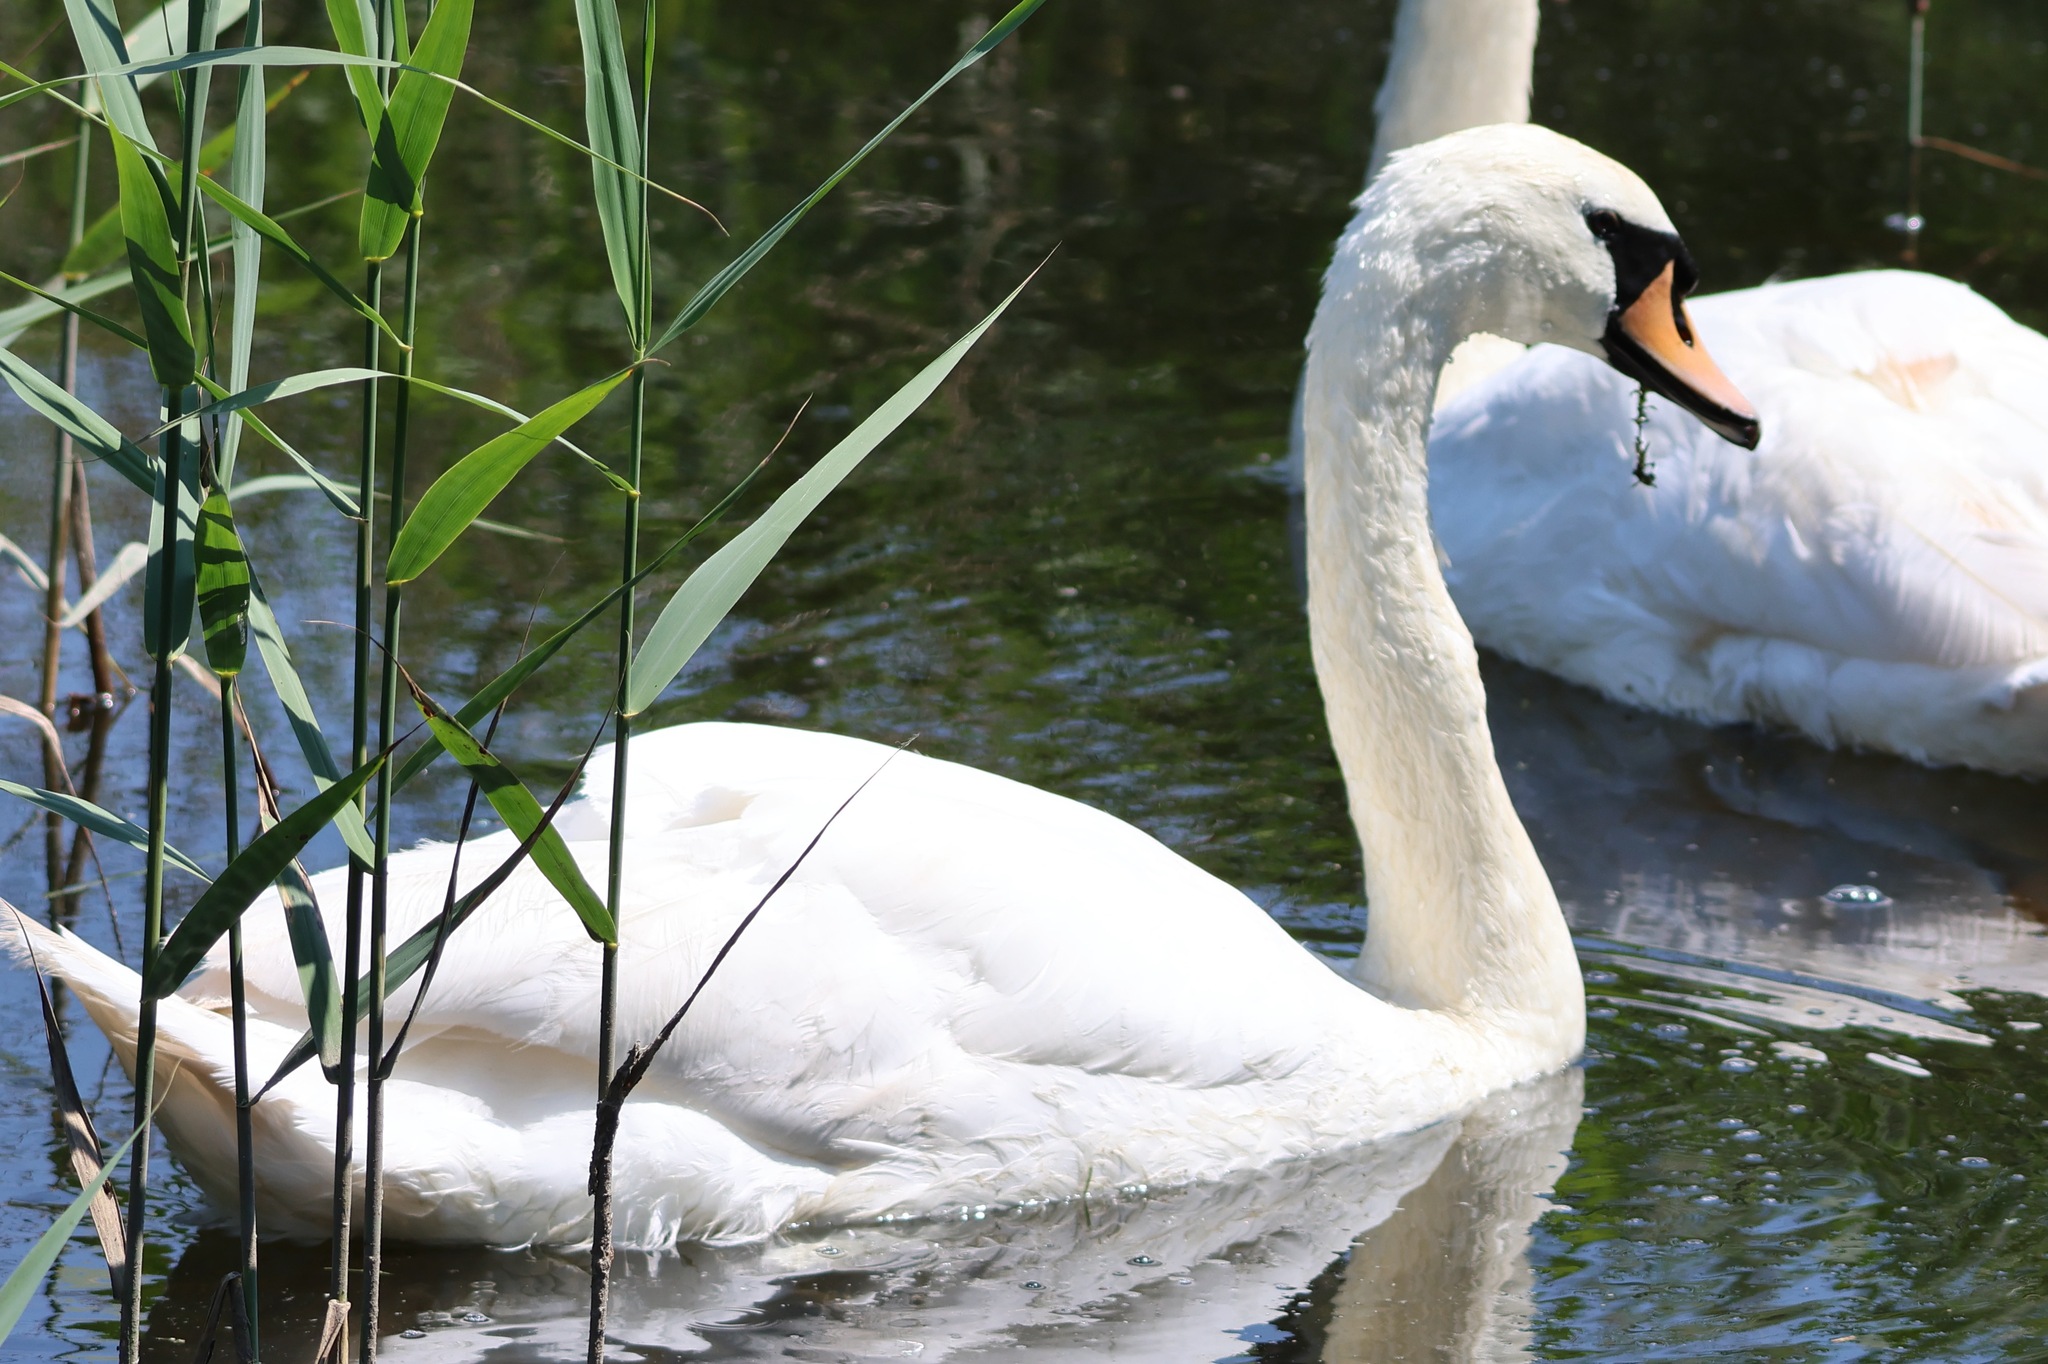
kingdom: Animalia
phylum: Chordata
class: Aves
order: Anseriformes
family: Anatidae
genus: Cygnus
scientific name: Cygnus olor
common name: Mute swan
